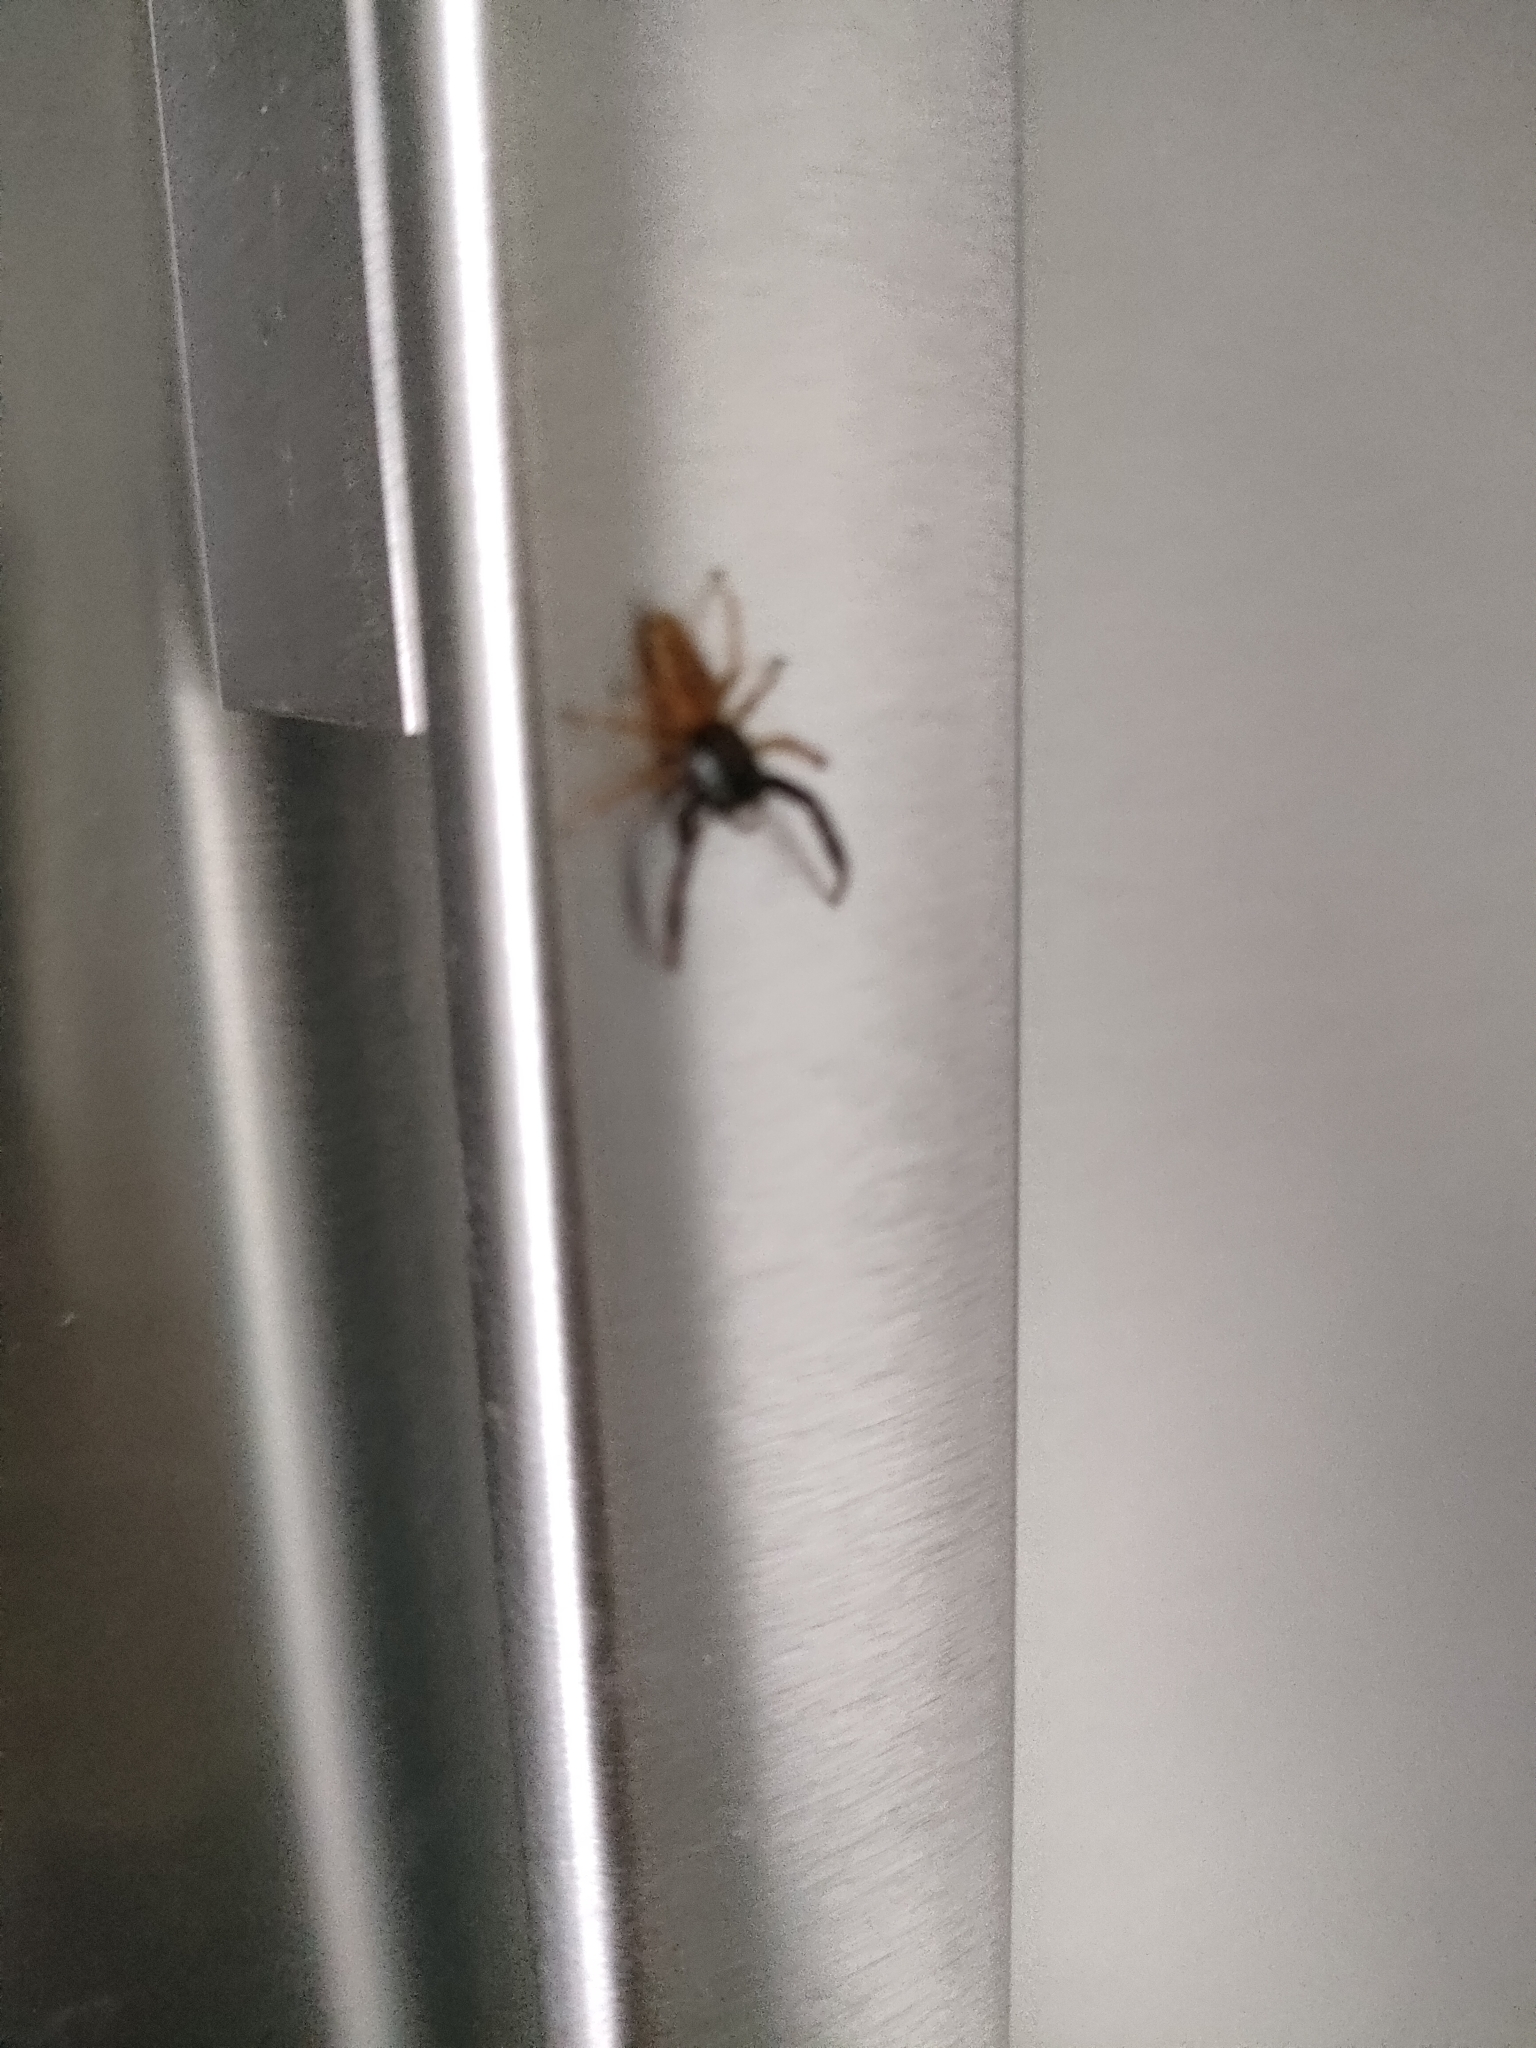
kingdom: Animalia
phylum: Arthropoda
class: Arachnida
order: Araneae
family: Salticidae
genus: Trite
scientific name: Trite planiceps
